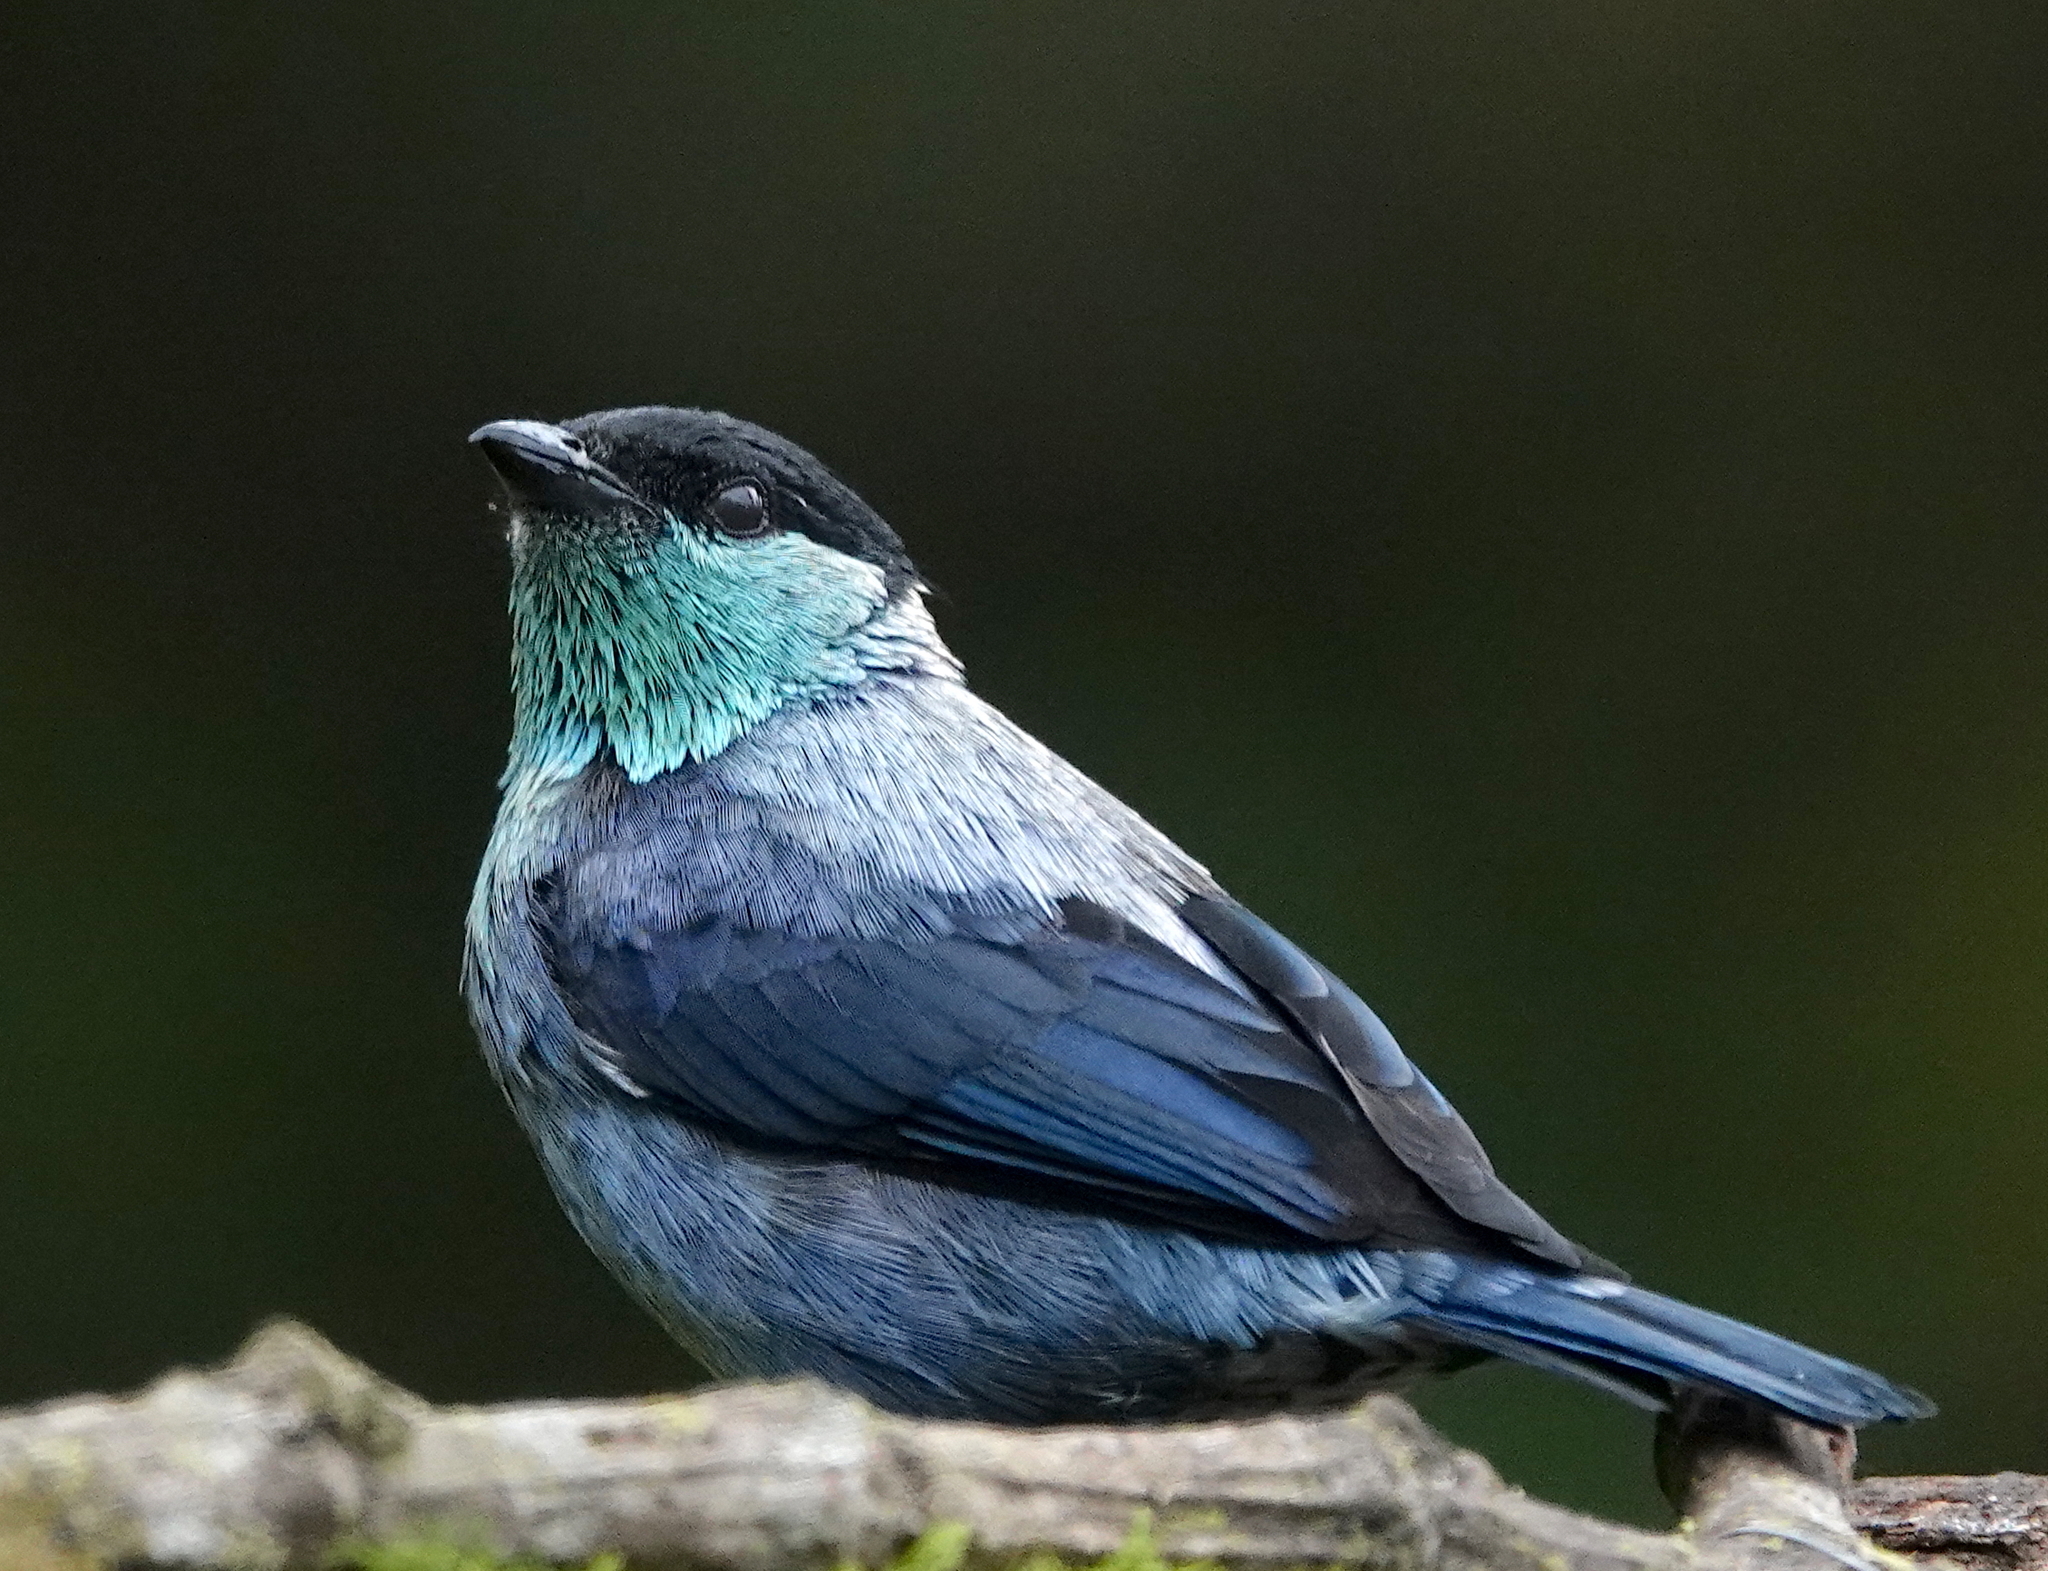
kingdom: Animalia
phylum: Chordata
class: Aves
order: Passeriformes
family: Thraupidae
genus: Stilpnia
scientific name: Stilpnia heinei
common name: Black-capped tanager
